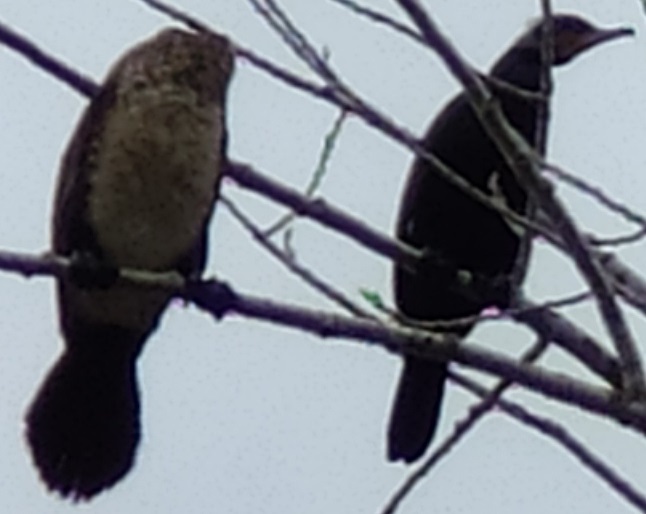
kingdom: Animalia
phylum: Chordata
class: Aves
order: Suliformes
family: Phalacrocoracidae
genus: Phalacrocorax
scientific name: Phalacrocorax carbo
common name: Great cormorant
